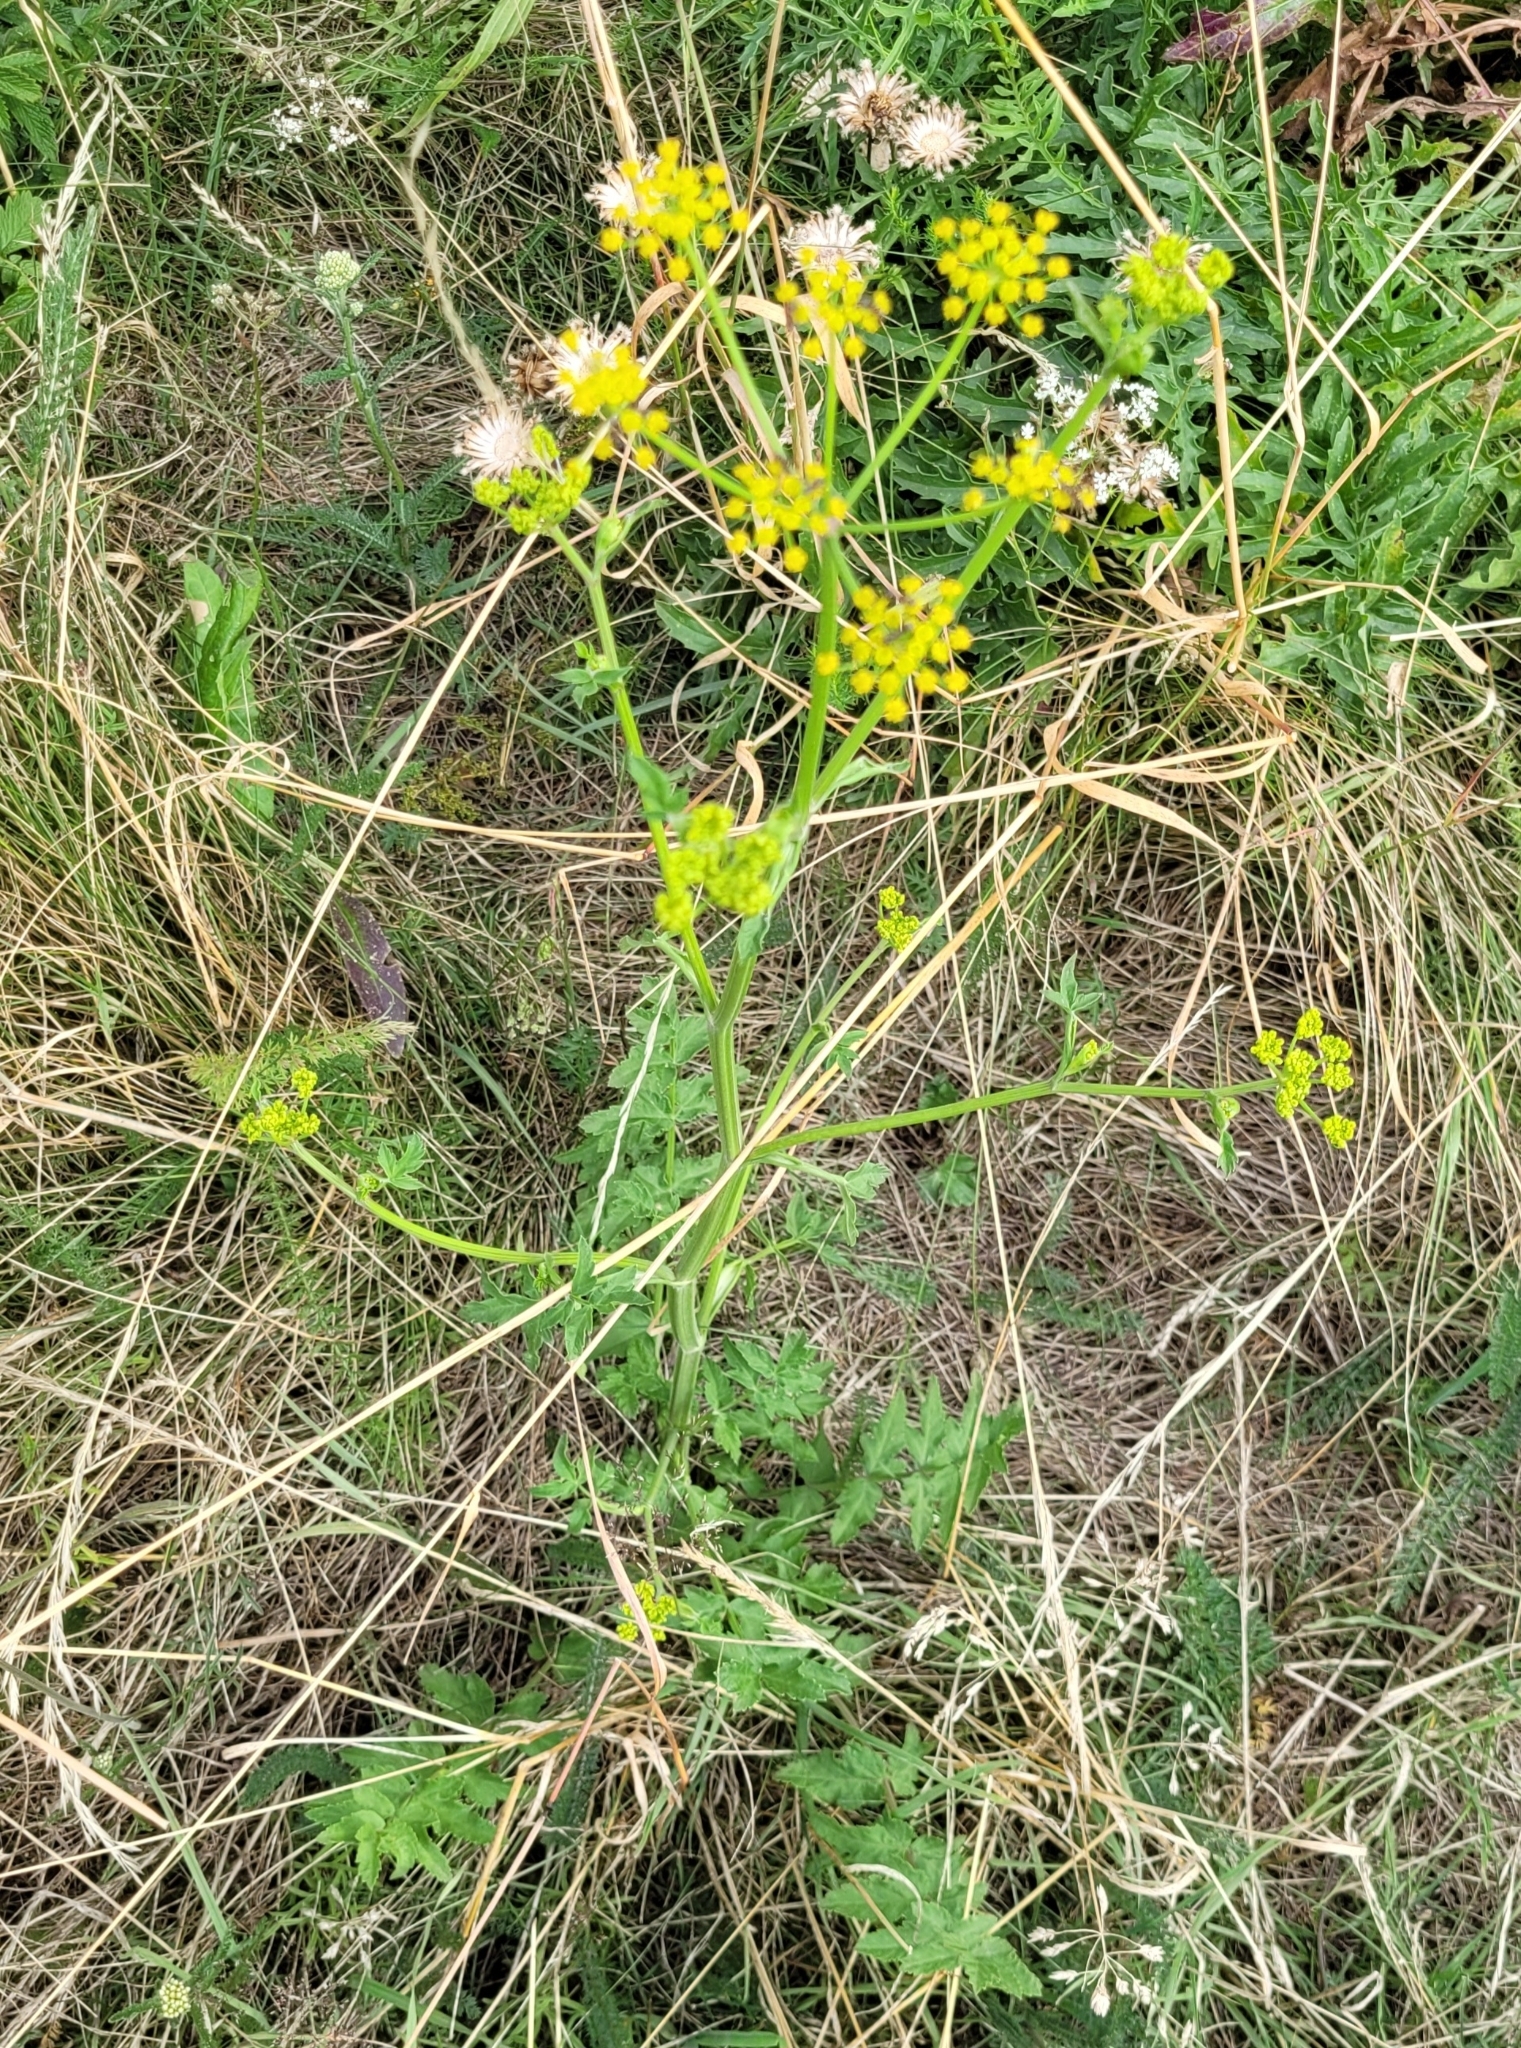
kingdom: Plantae
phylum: Tracheophyta
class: Magnoliopsida
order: Apiales
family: Apiaceae
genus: Pastinaca
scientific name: Pastinaca sativa
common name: Wild parsnip
